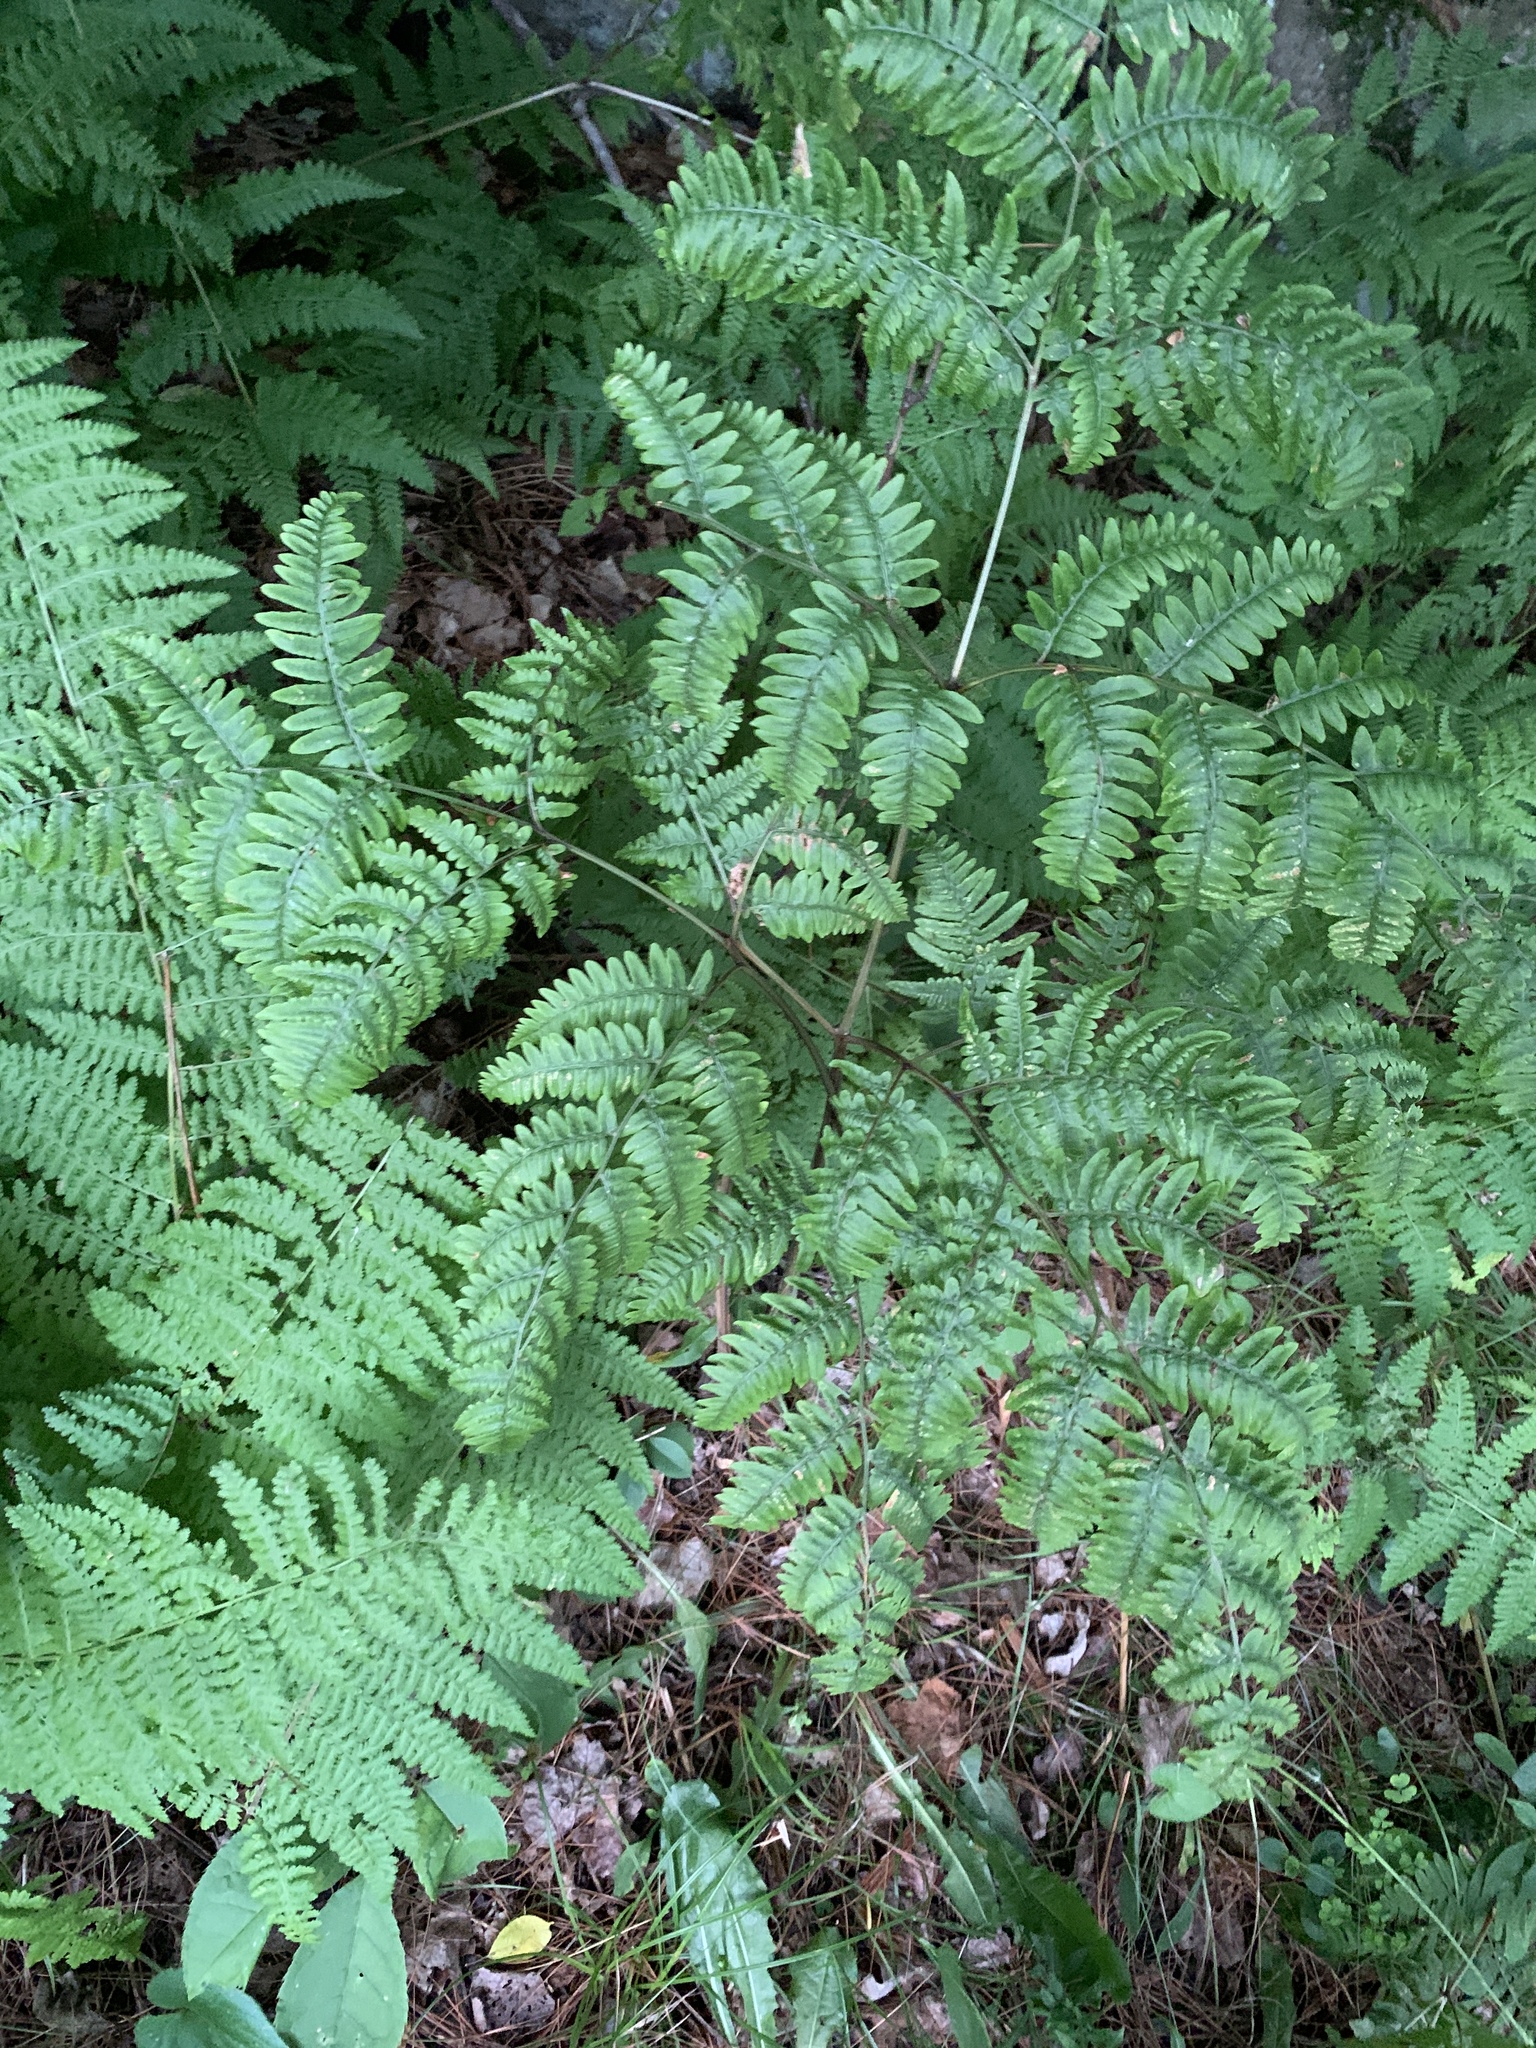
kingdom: Plantae
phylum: Tracheophyta
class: Polypodiopsida
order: Polypodiales
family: Dennstaedtiaceae
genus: Pteridium
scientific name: Pteridium aquilinum
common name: Bracken
